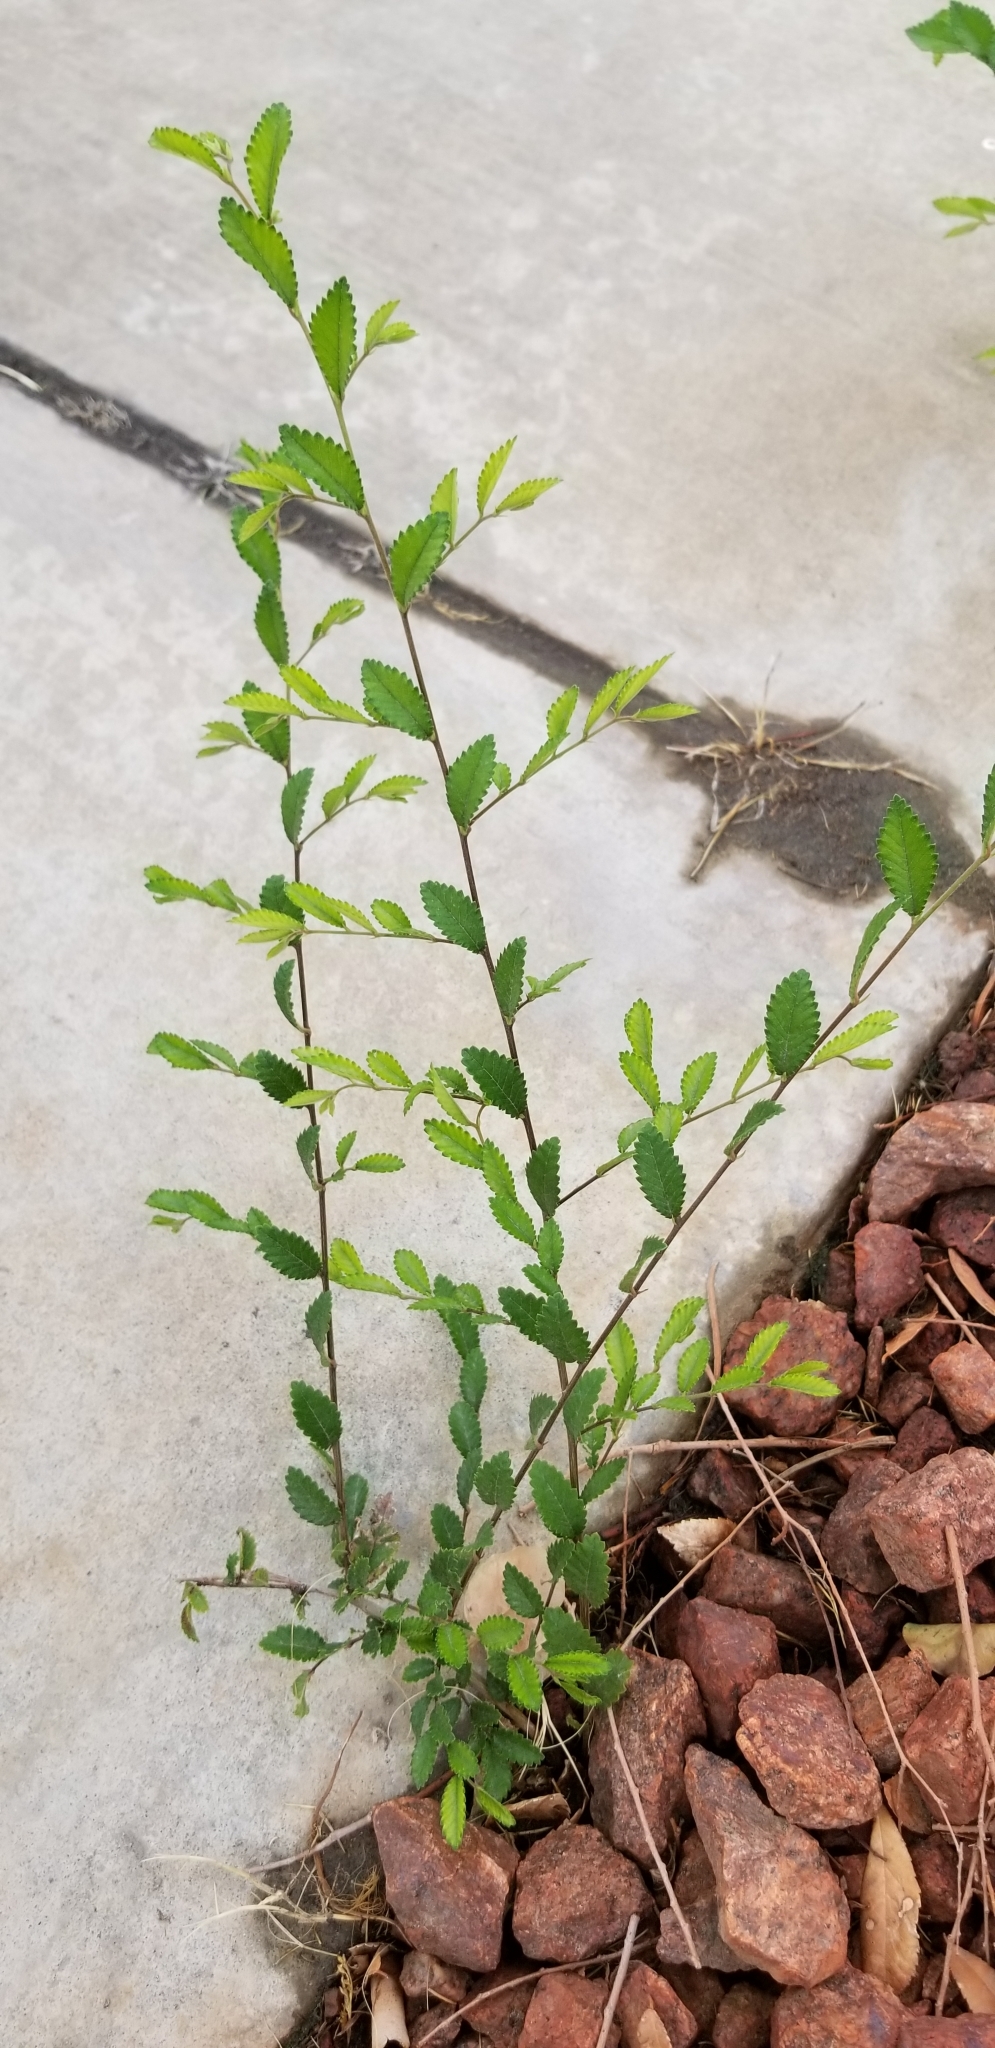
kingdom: Plantae
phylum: Tracheophyta
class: Magnoliopsida
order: Rosales
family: Ulmaceae
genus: Ulmus
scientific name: Ulmus parvifolia
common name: Chinese elm
